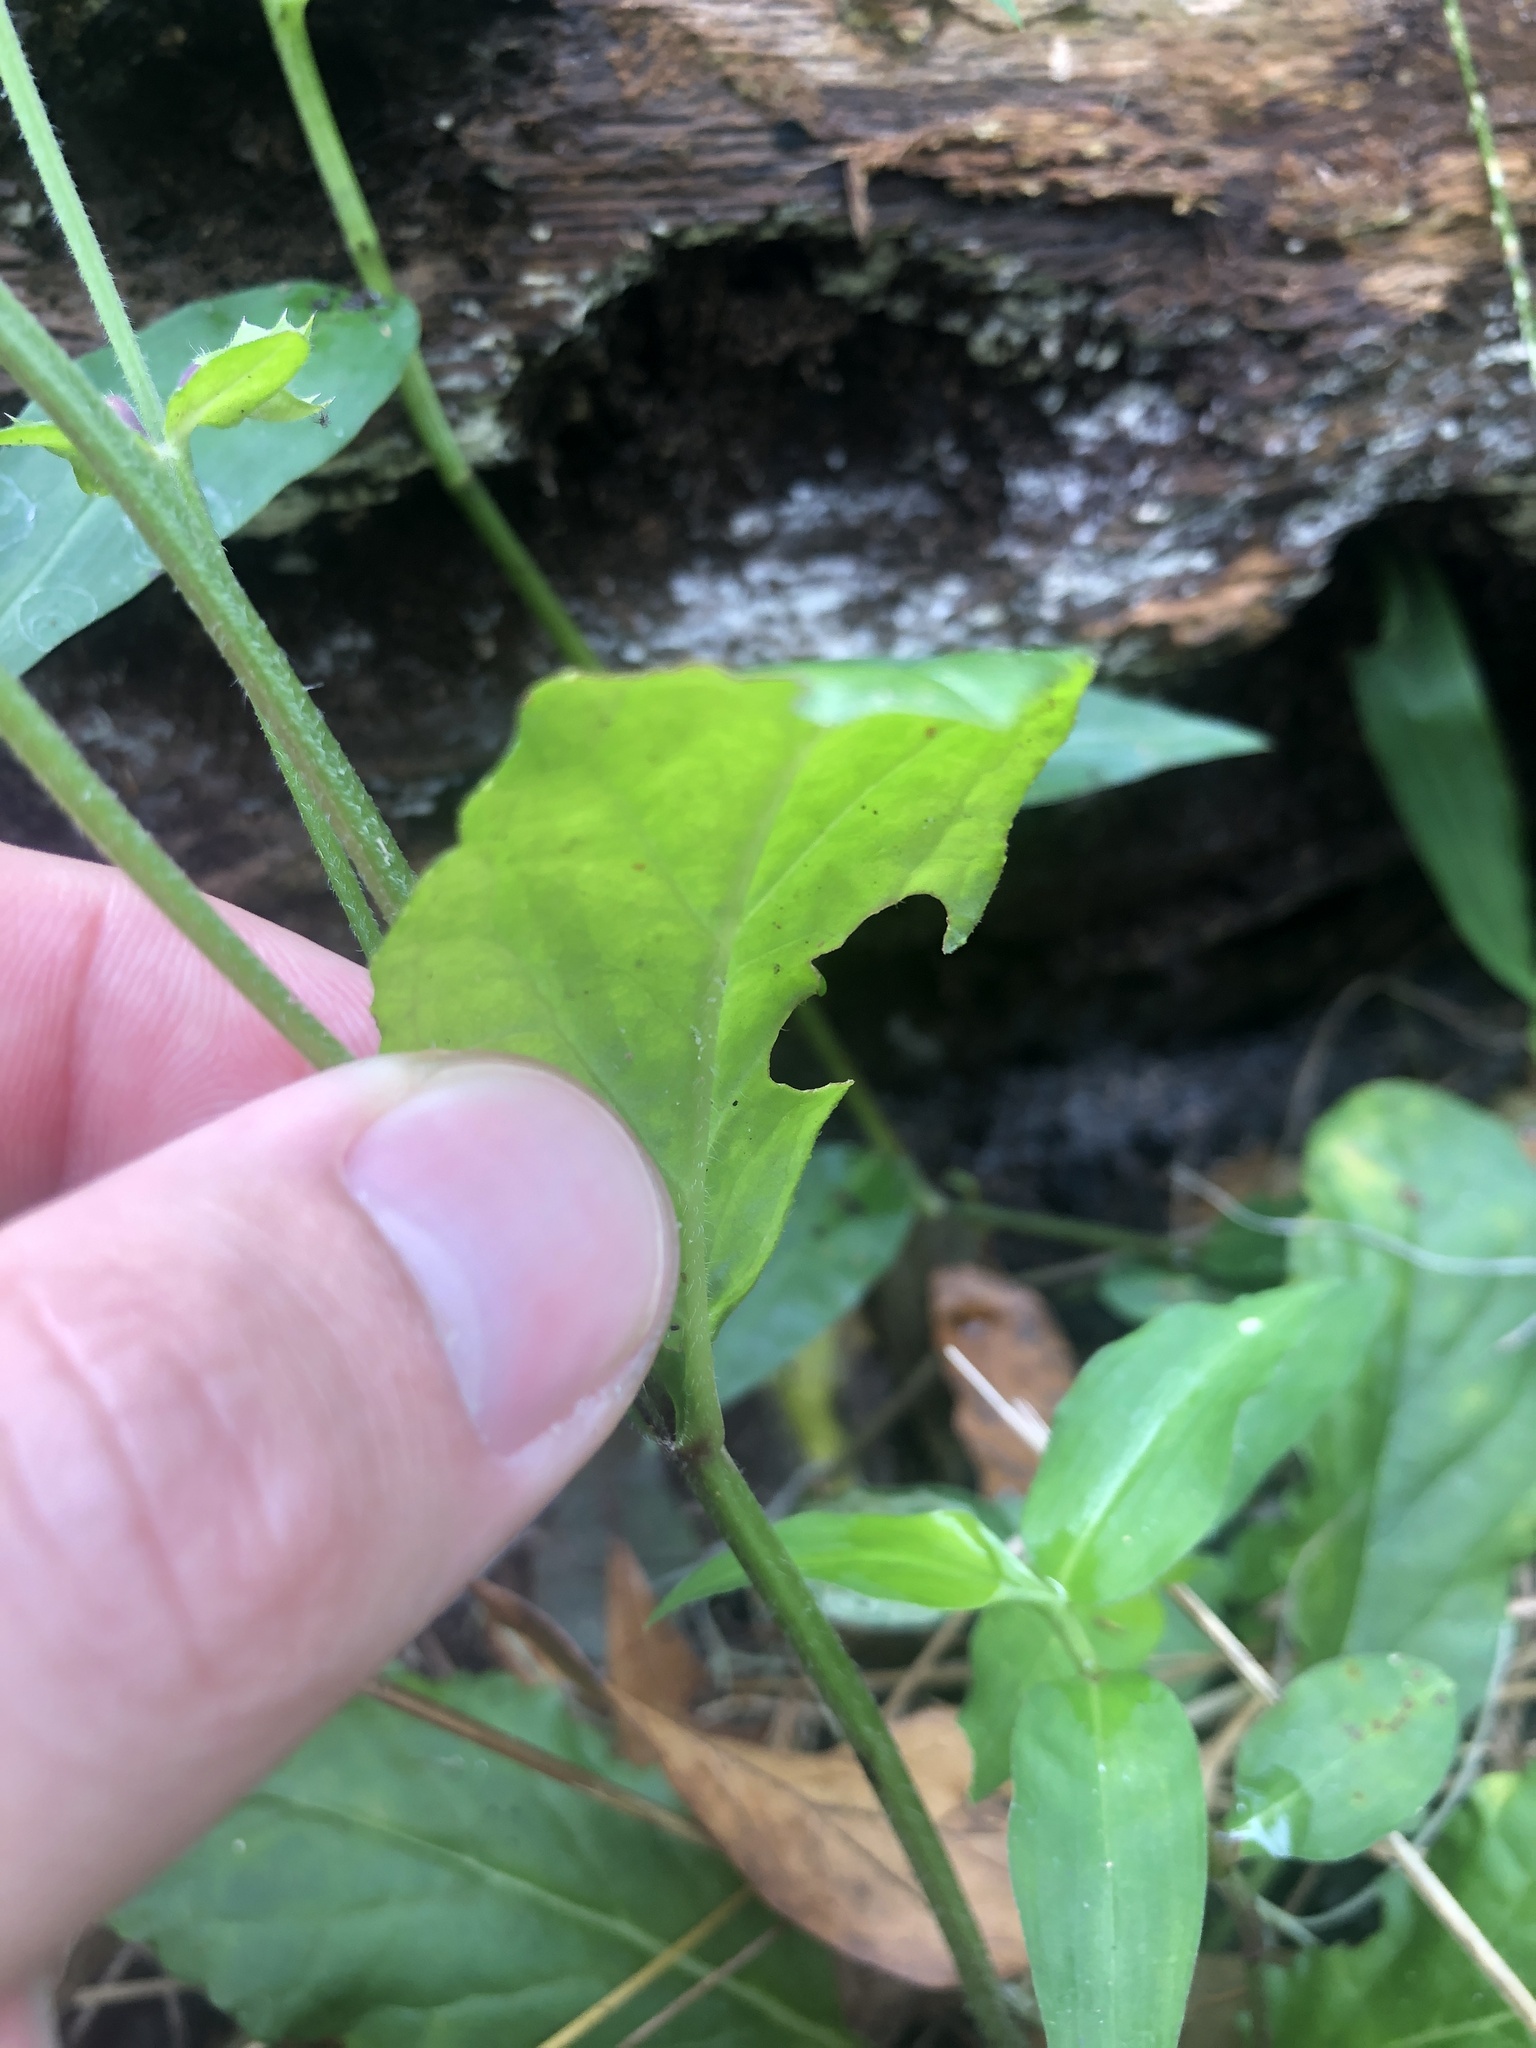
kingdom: Plantae
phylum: Tracheophyta
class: Magnoliopsida
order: Lamiales
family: Lamiaceae
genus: Salvia
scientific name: Salvia lyrata
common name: Cancerweed
